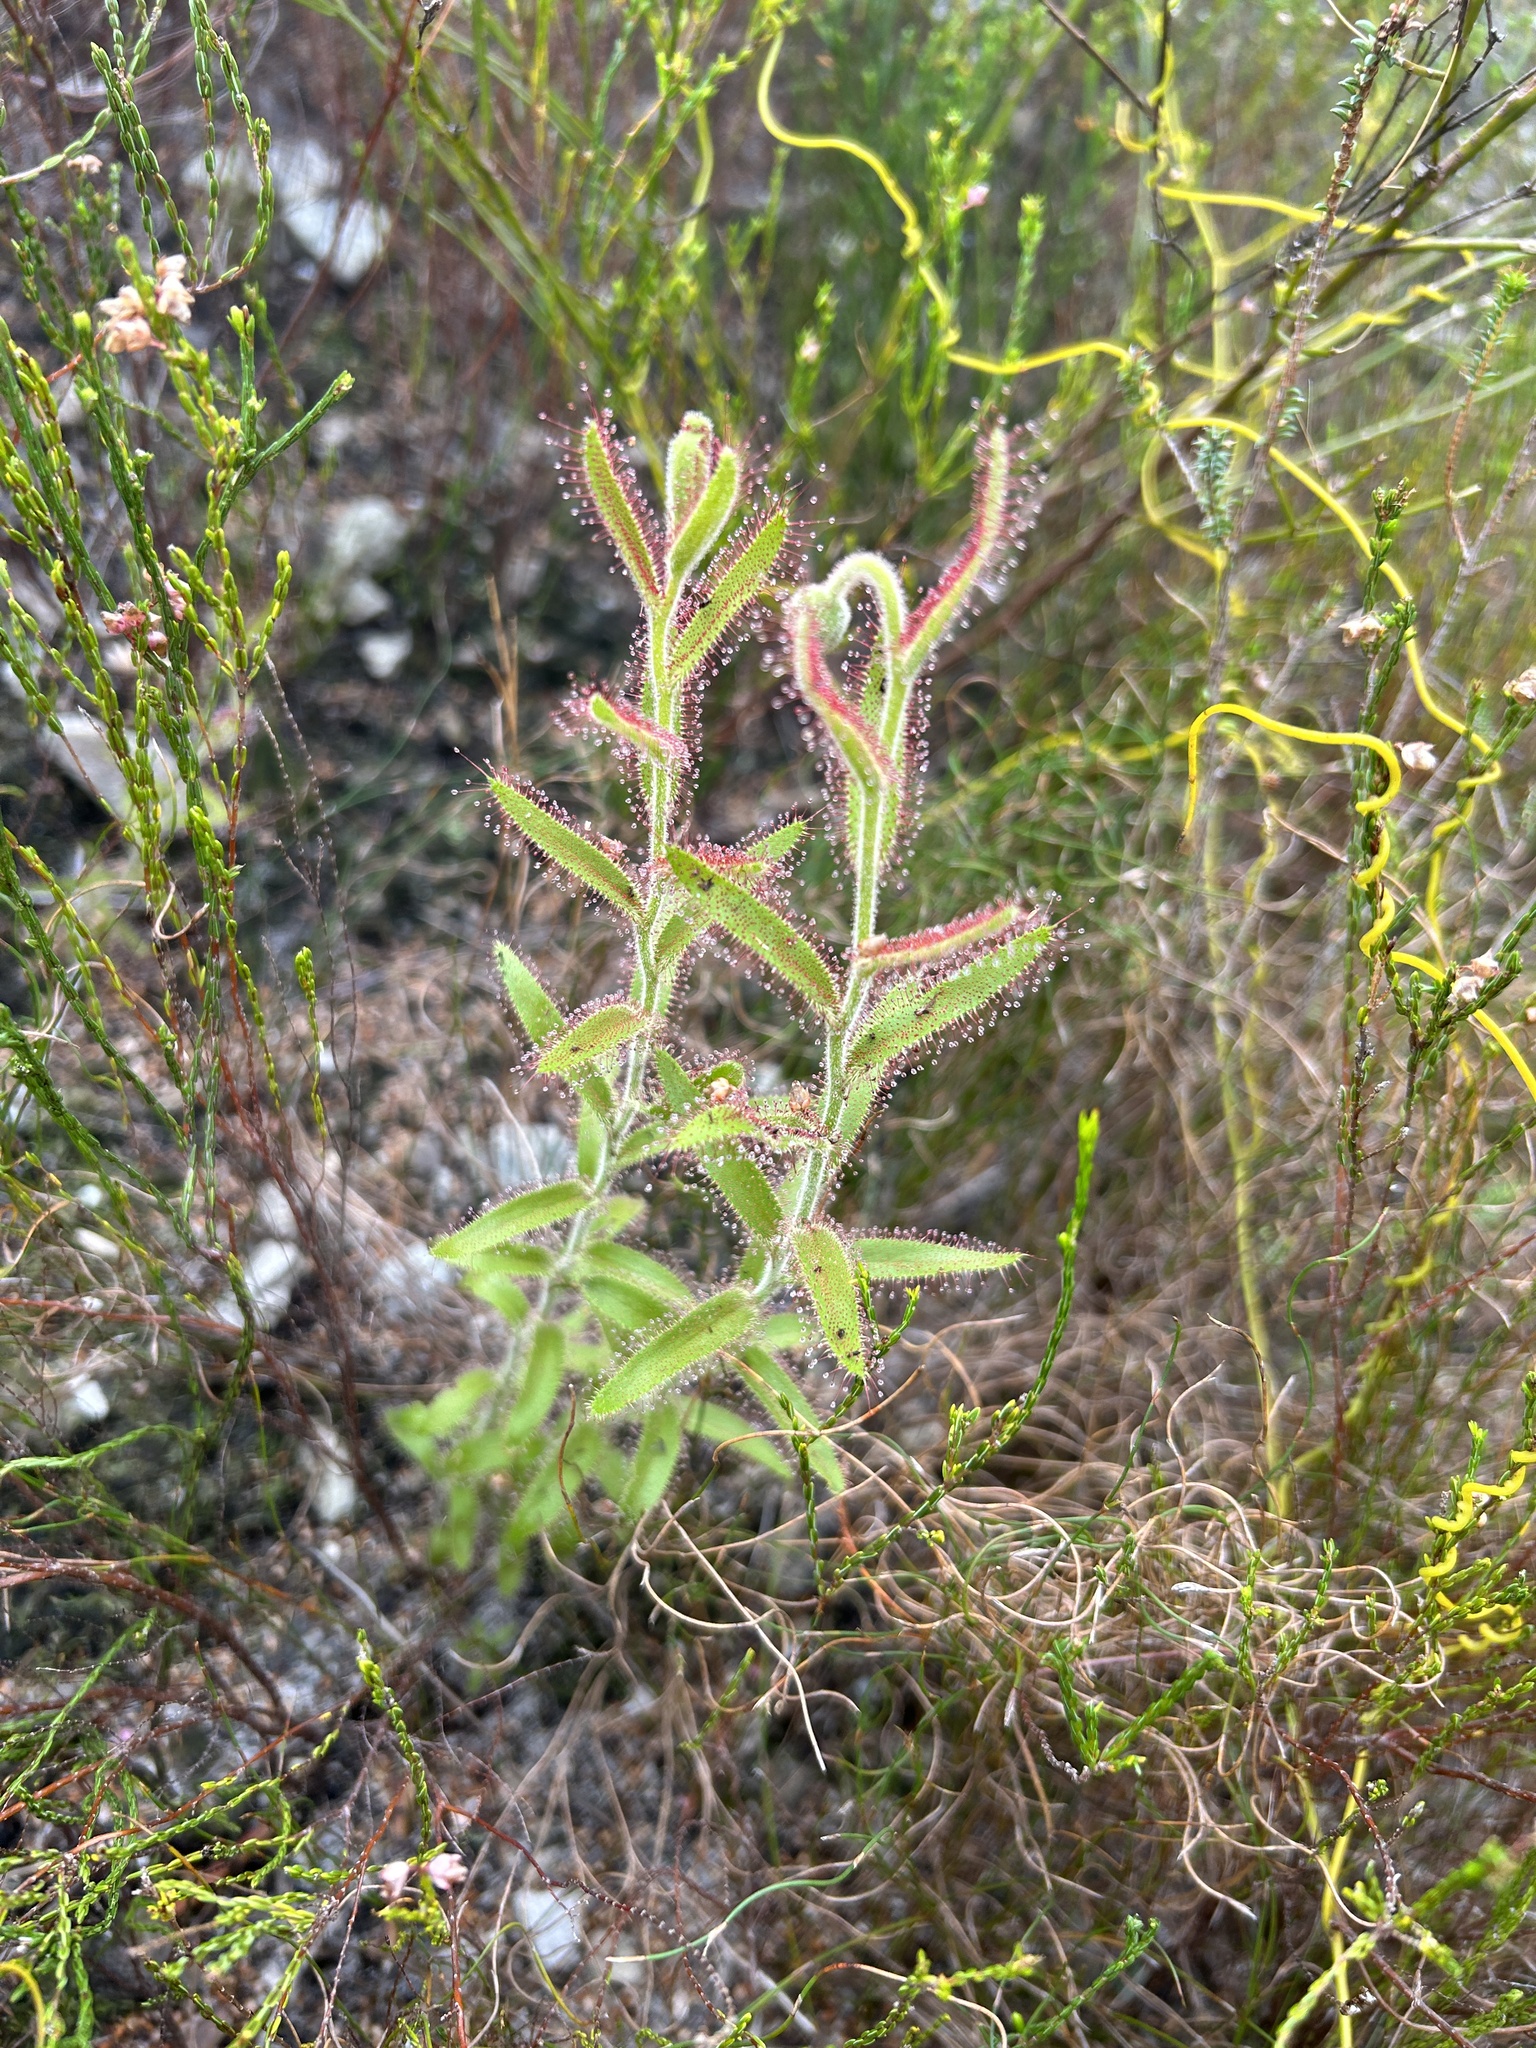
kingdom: Plantae
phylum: Tracheophyta
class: Magnoliopsida
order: Caryophyllales
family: Droseraceae
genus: Drosera
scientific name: Drosera cistiflora
